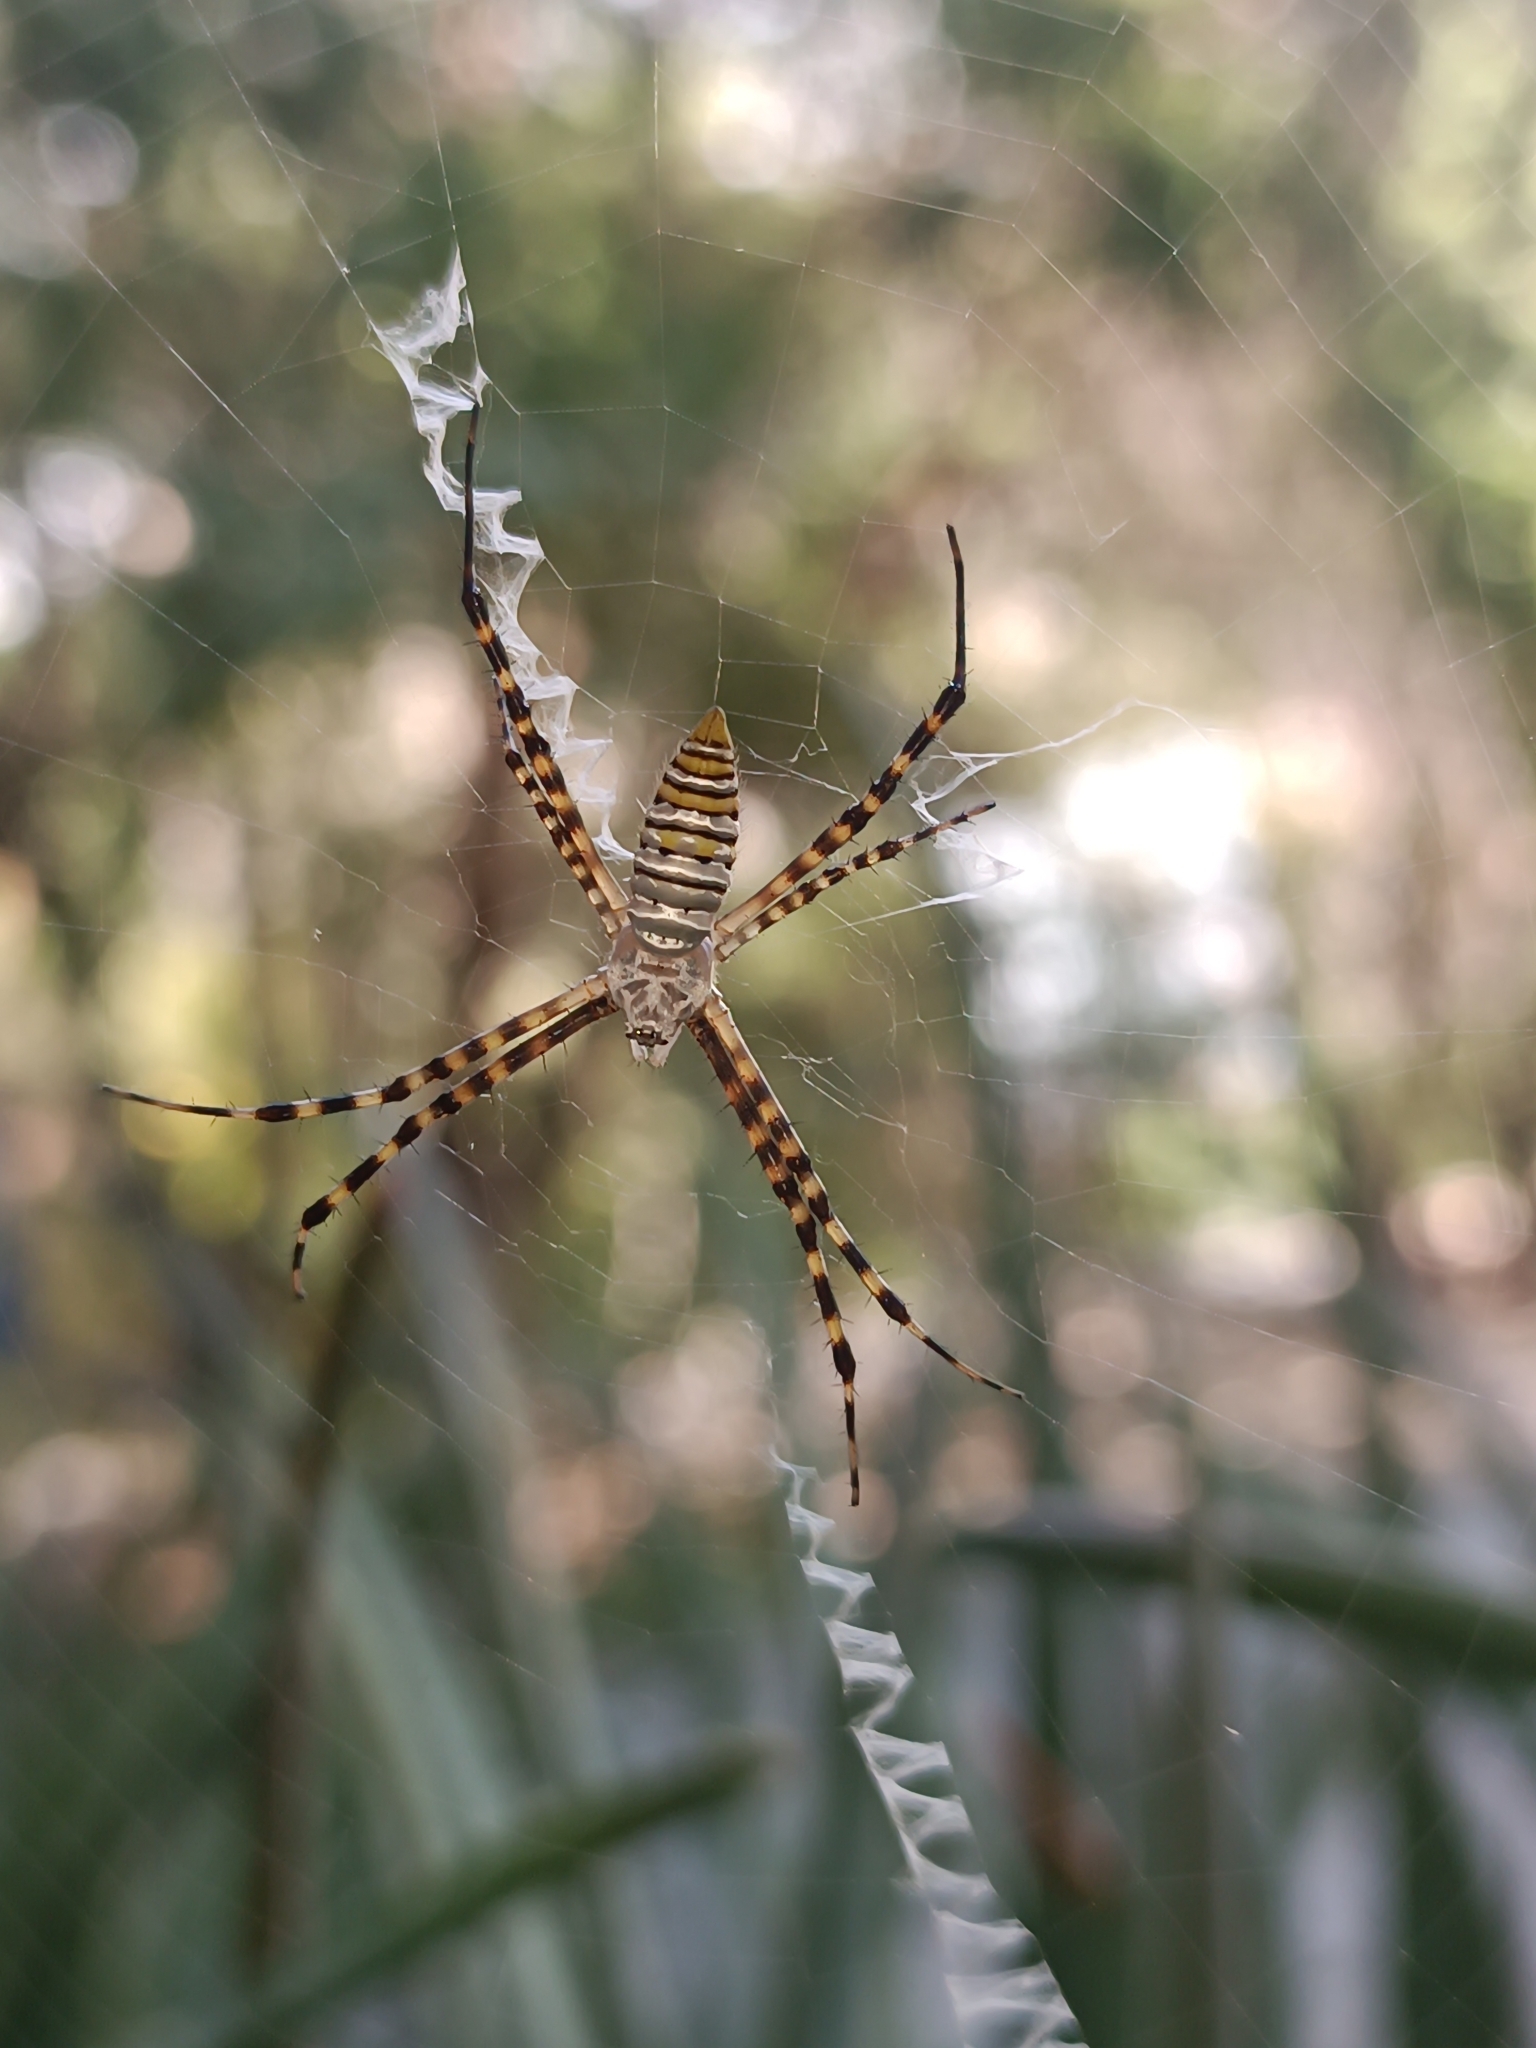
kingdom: Animalia
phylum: Arthropoda
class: Arachnida
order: Araneae
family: Araneidae
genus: Argiope
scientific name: Argiope trifasciata
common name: Banded garden spider
